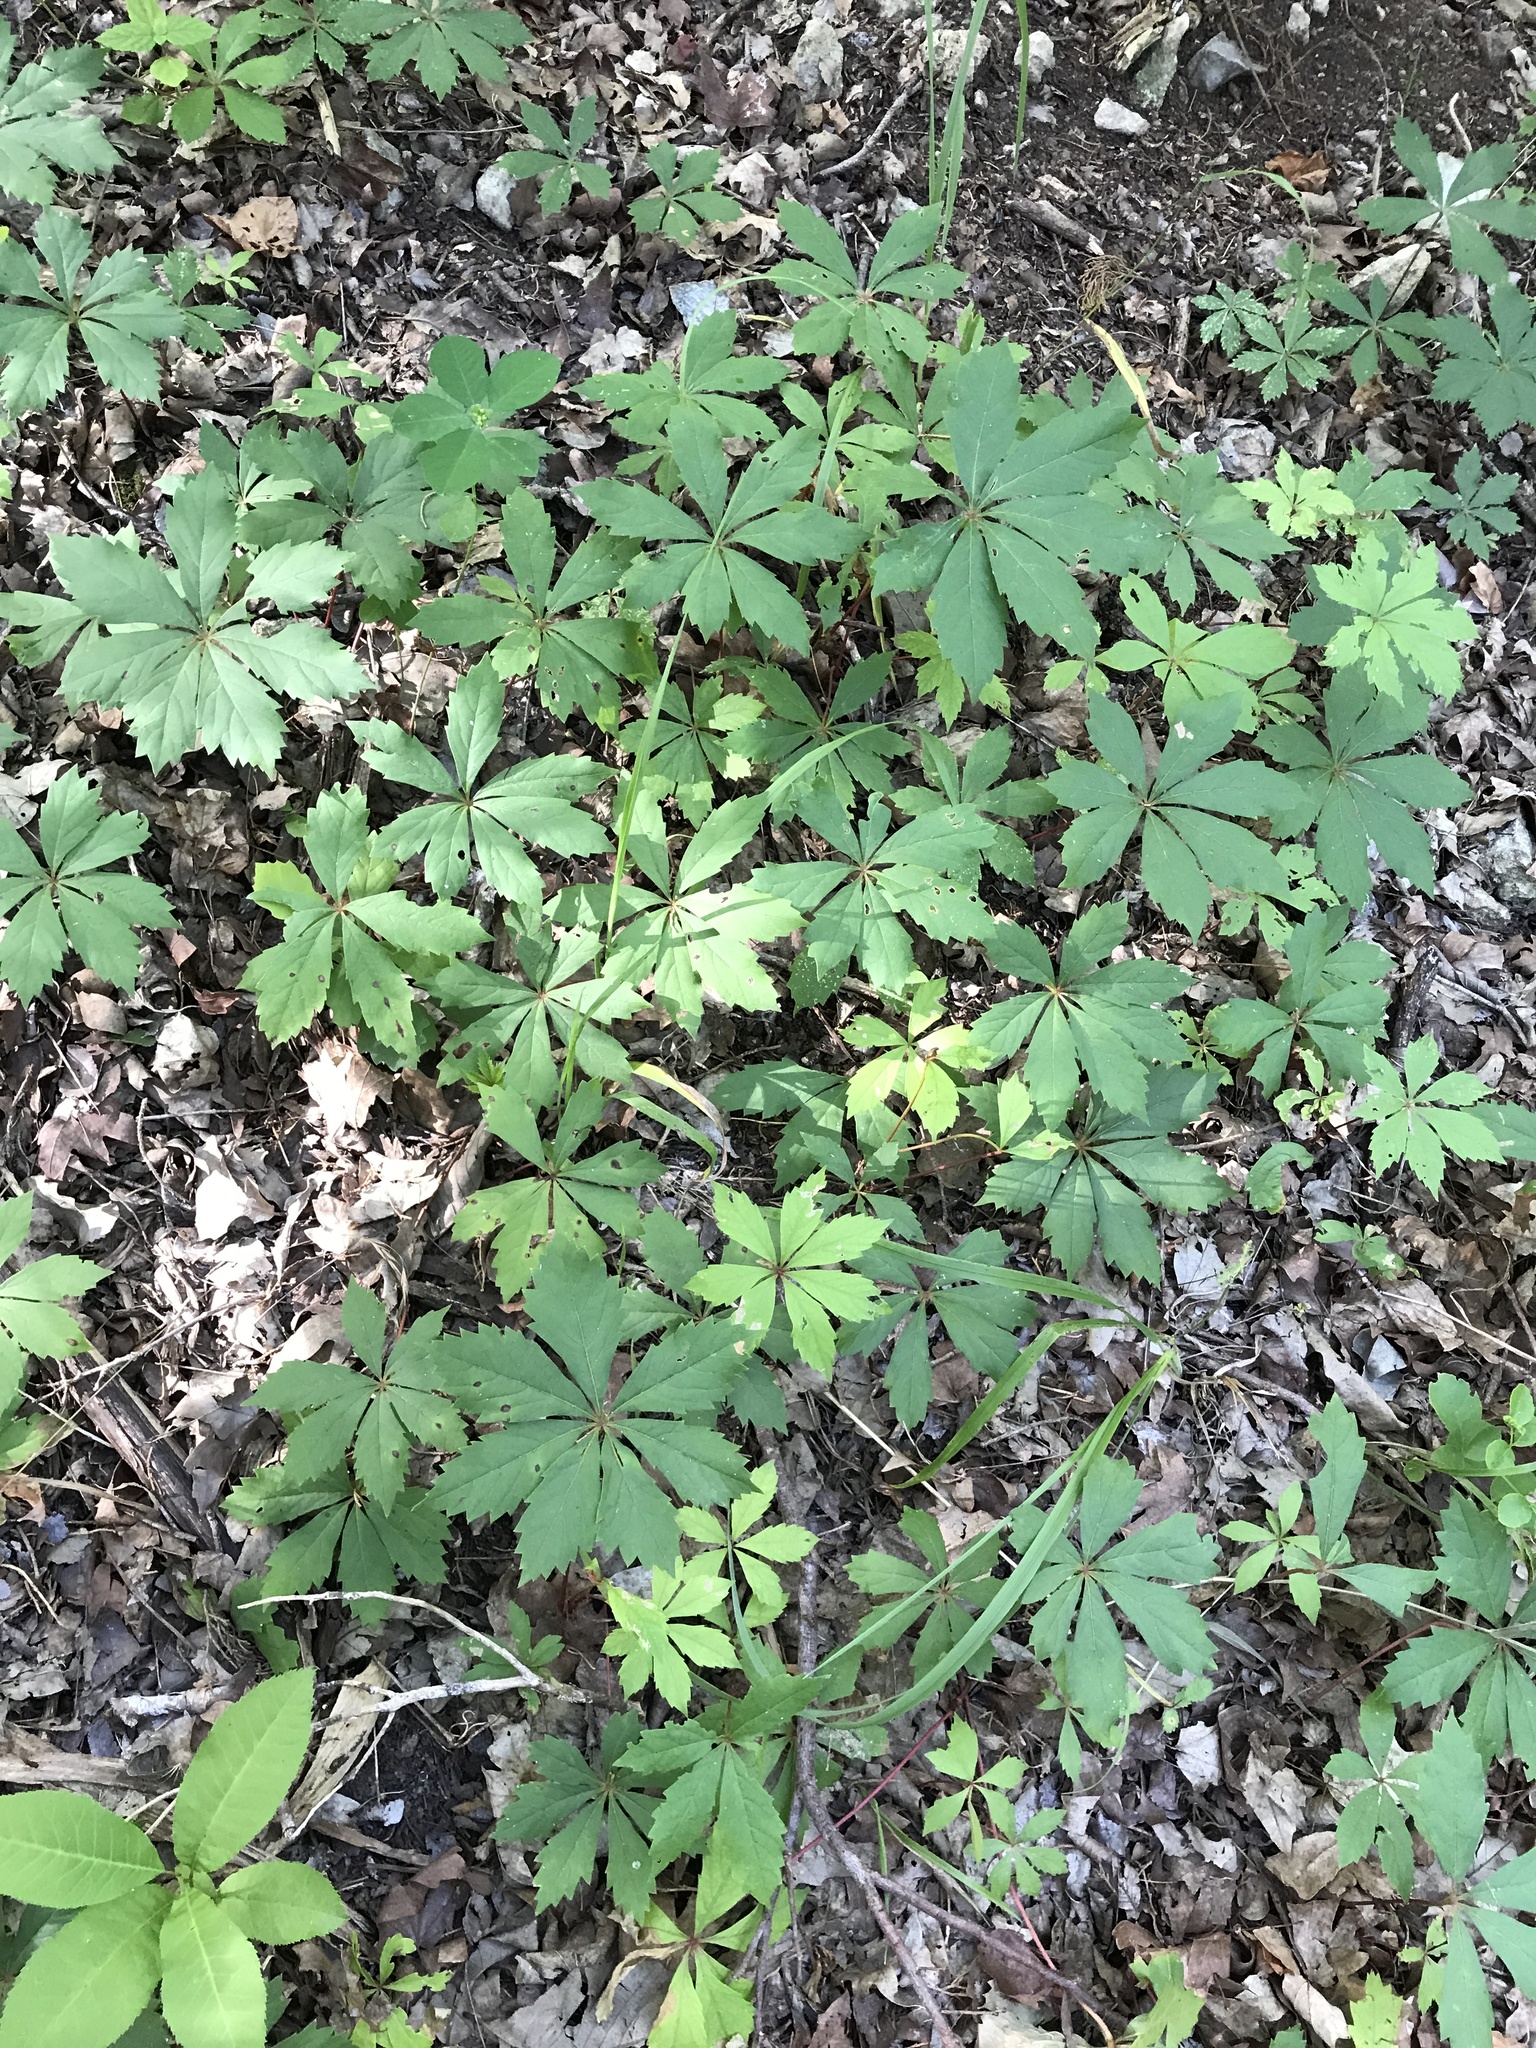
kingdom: Plantae
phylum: Tracheophyta
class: Magnoliopsida
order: Vitales
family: Vitaceae
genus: Parthenocissus
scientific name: Parthenocissus heptaphylla
